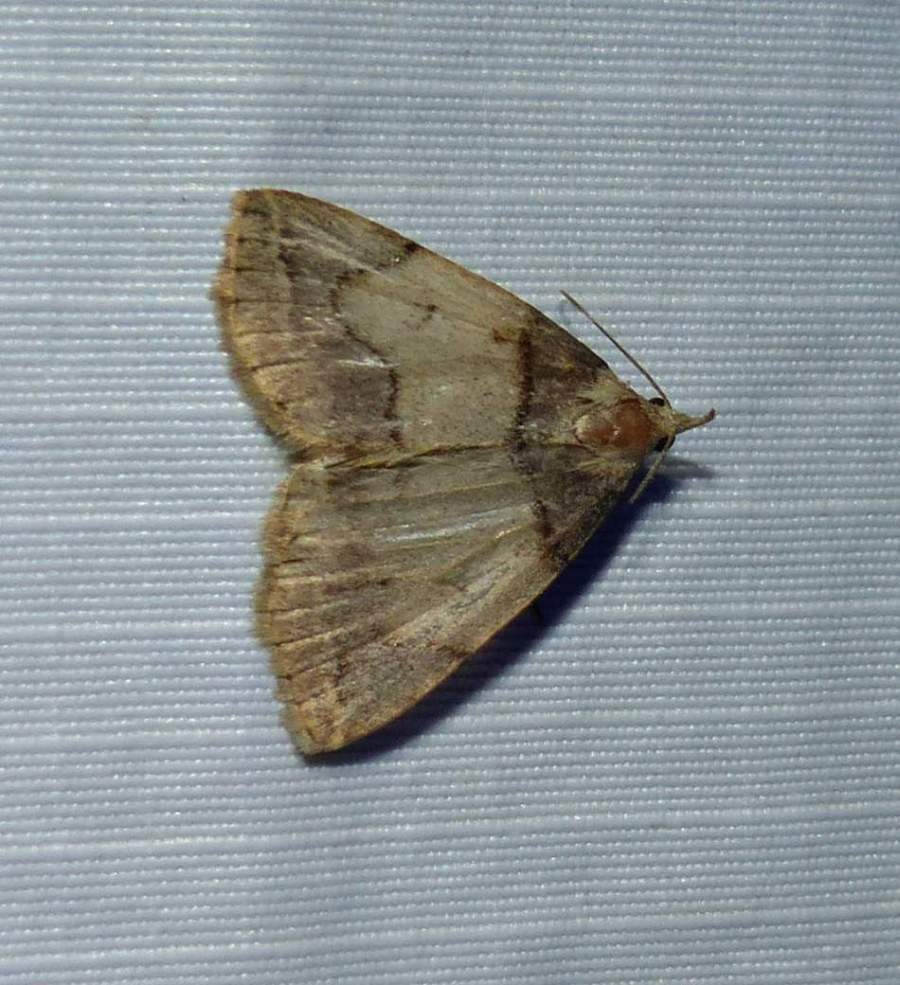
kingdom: Animalia
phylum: Arthropoda
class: Insecta
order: Lepidoptera
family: Erebidae
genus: Zanclognatha
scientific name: Zanclognatha laevigata
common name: Variable fan-foot
